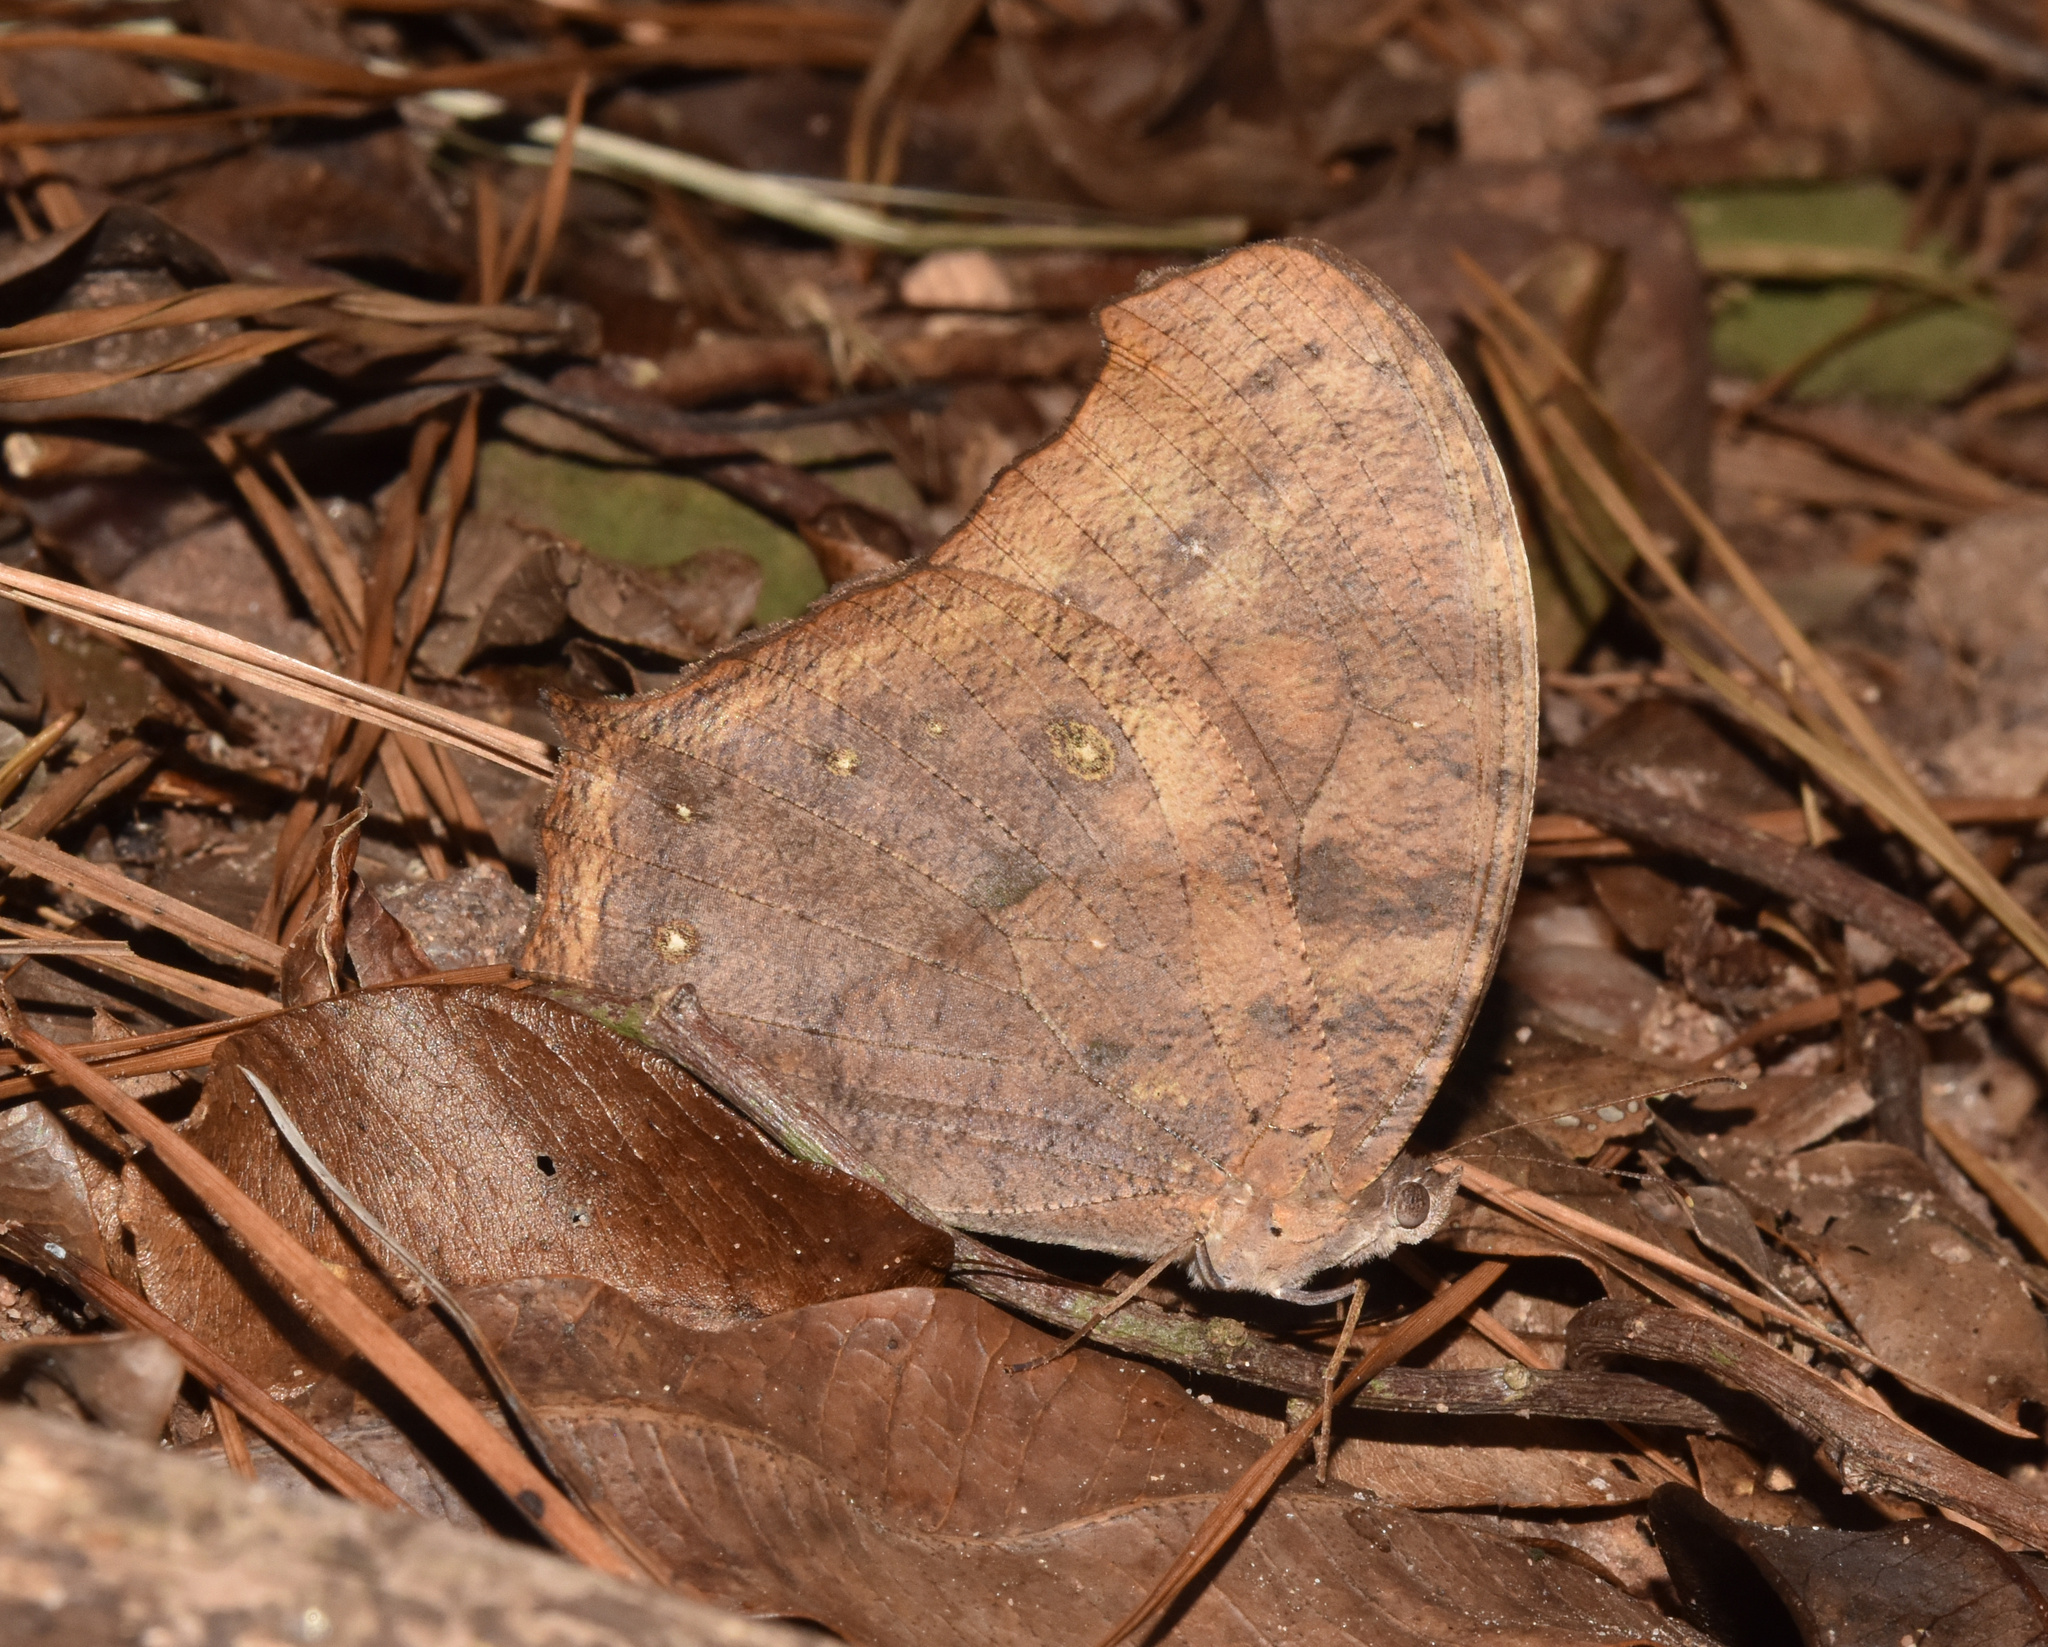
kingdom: Animalia
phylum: Arthropoda
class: Insecta
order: Lepidoptera
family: Nymphalidae
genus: Melanitis
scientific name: Melanitis leda
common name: Twilight brown
